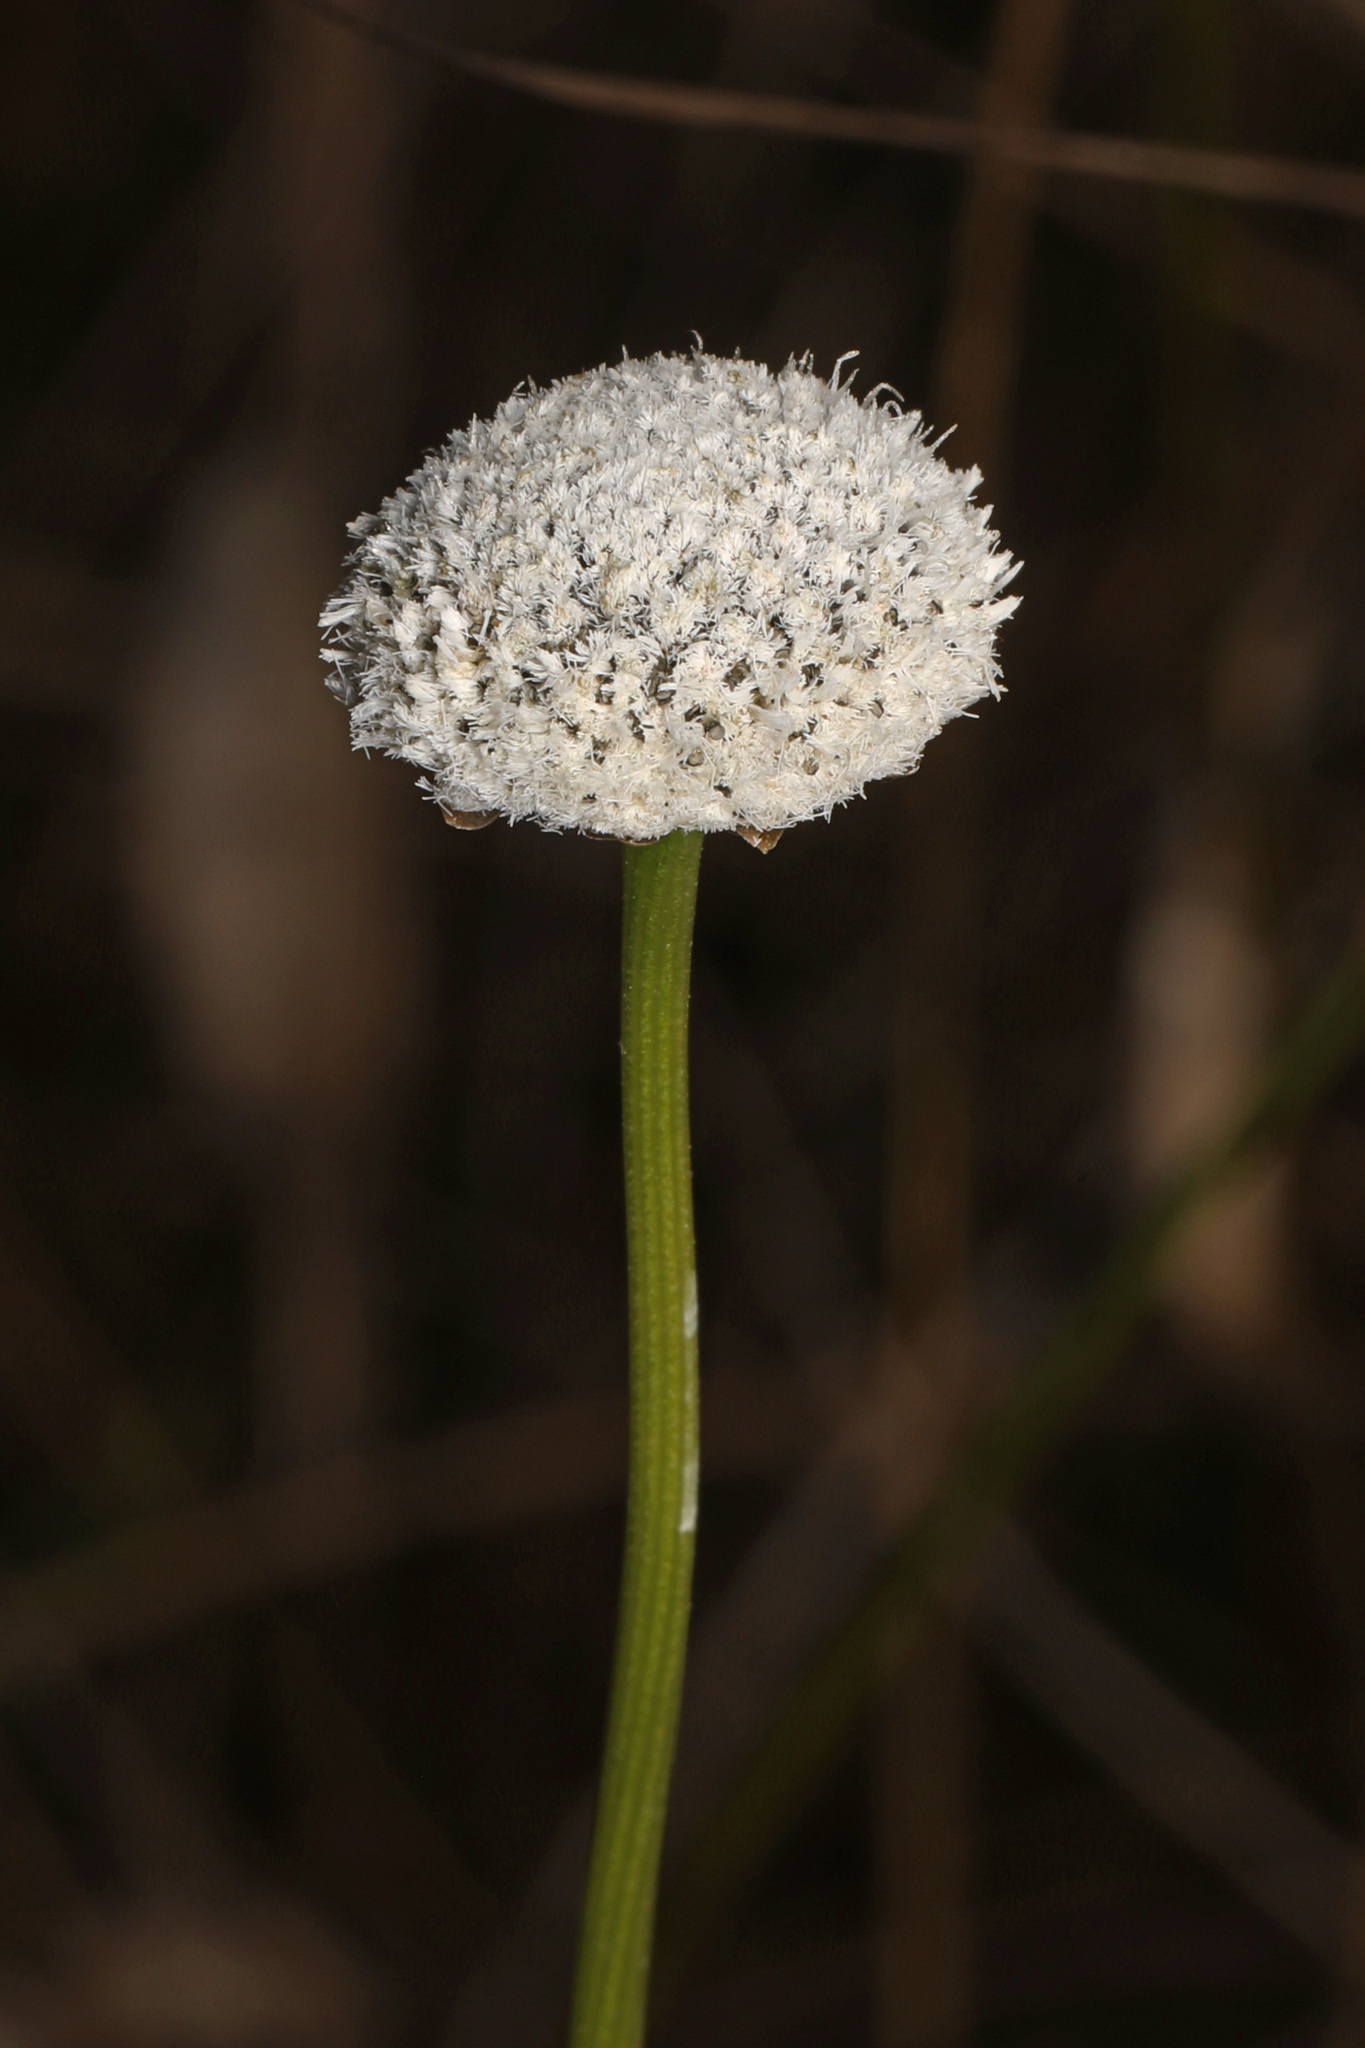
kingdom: Plantae
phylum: Tracheophyta
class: Liliopsida
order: Poales
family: Eriocaulaceae
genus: Eriocaulon
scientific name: Eriocaulon compressum
